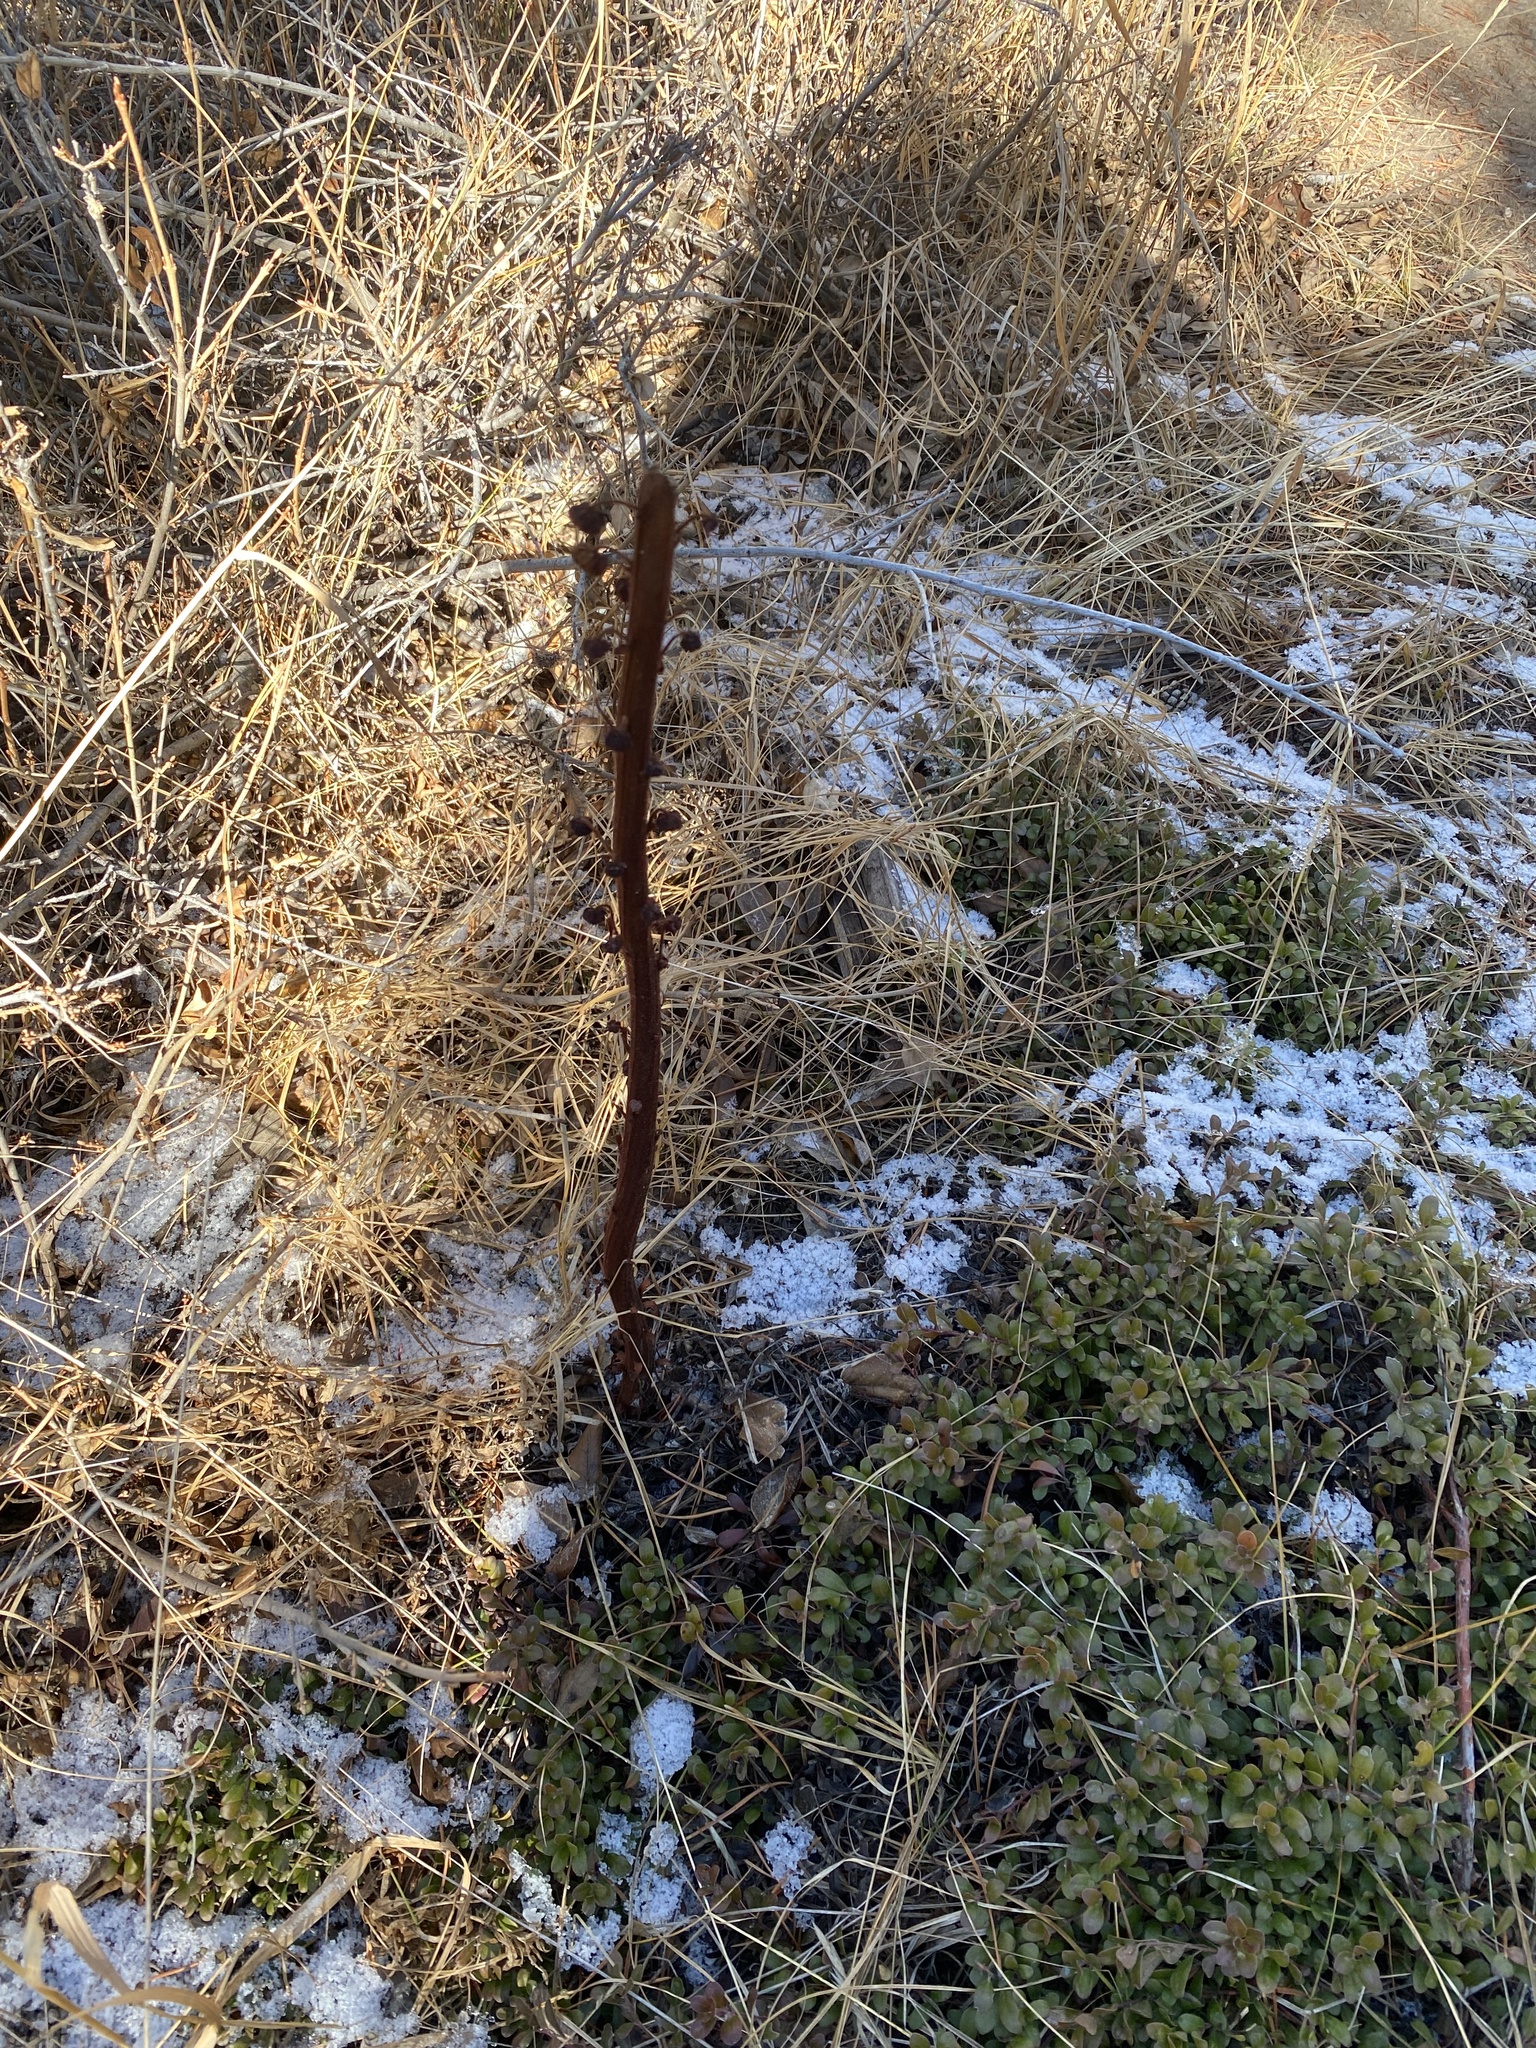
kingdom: Plantae
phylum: Tracheophyta
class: Magnoliopsida
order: Ericales
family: Ericaceae
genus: Pterospora
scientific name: Pterospora andromedea
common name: Giant bird's-nest
